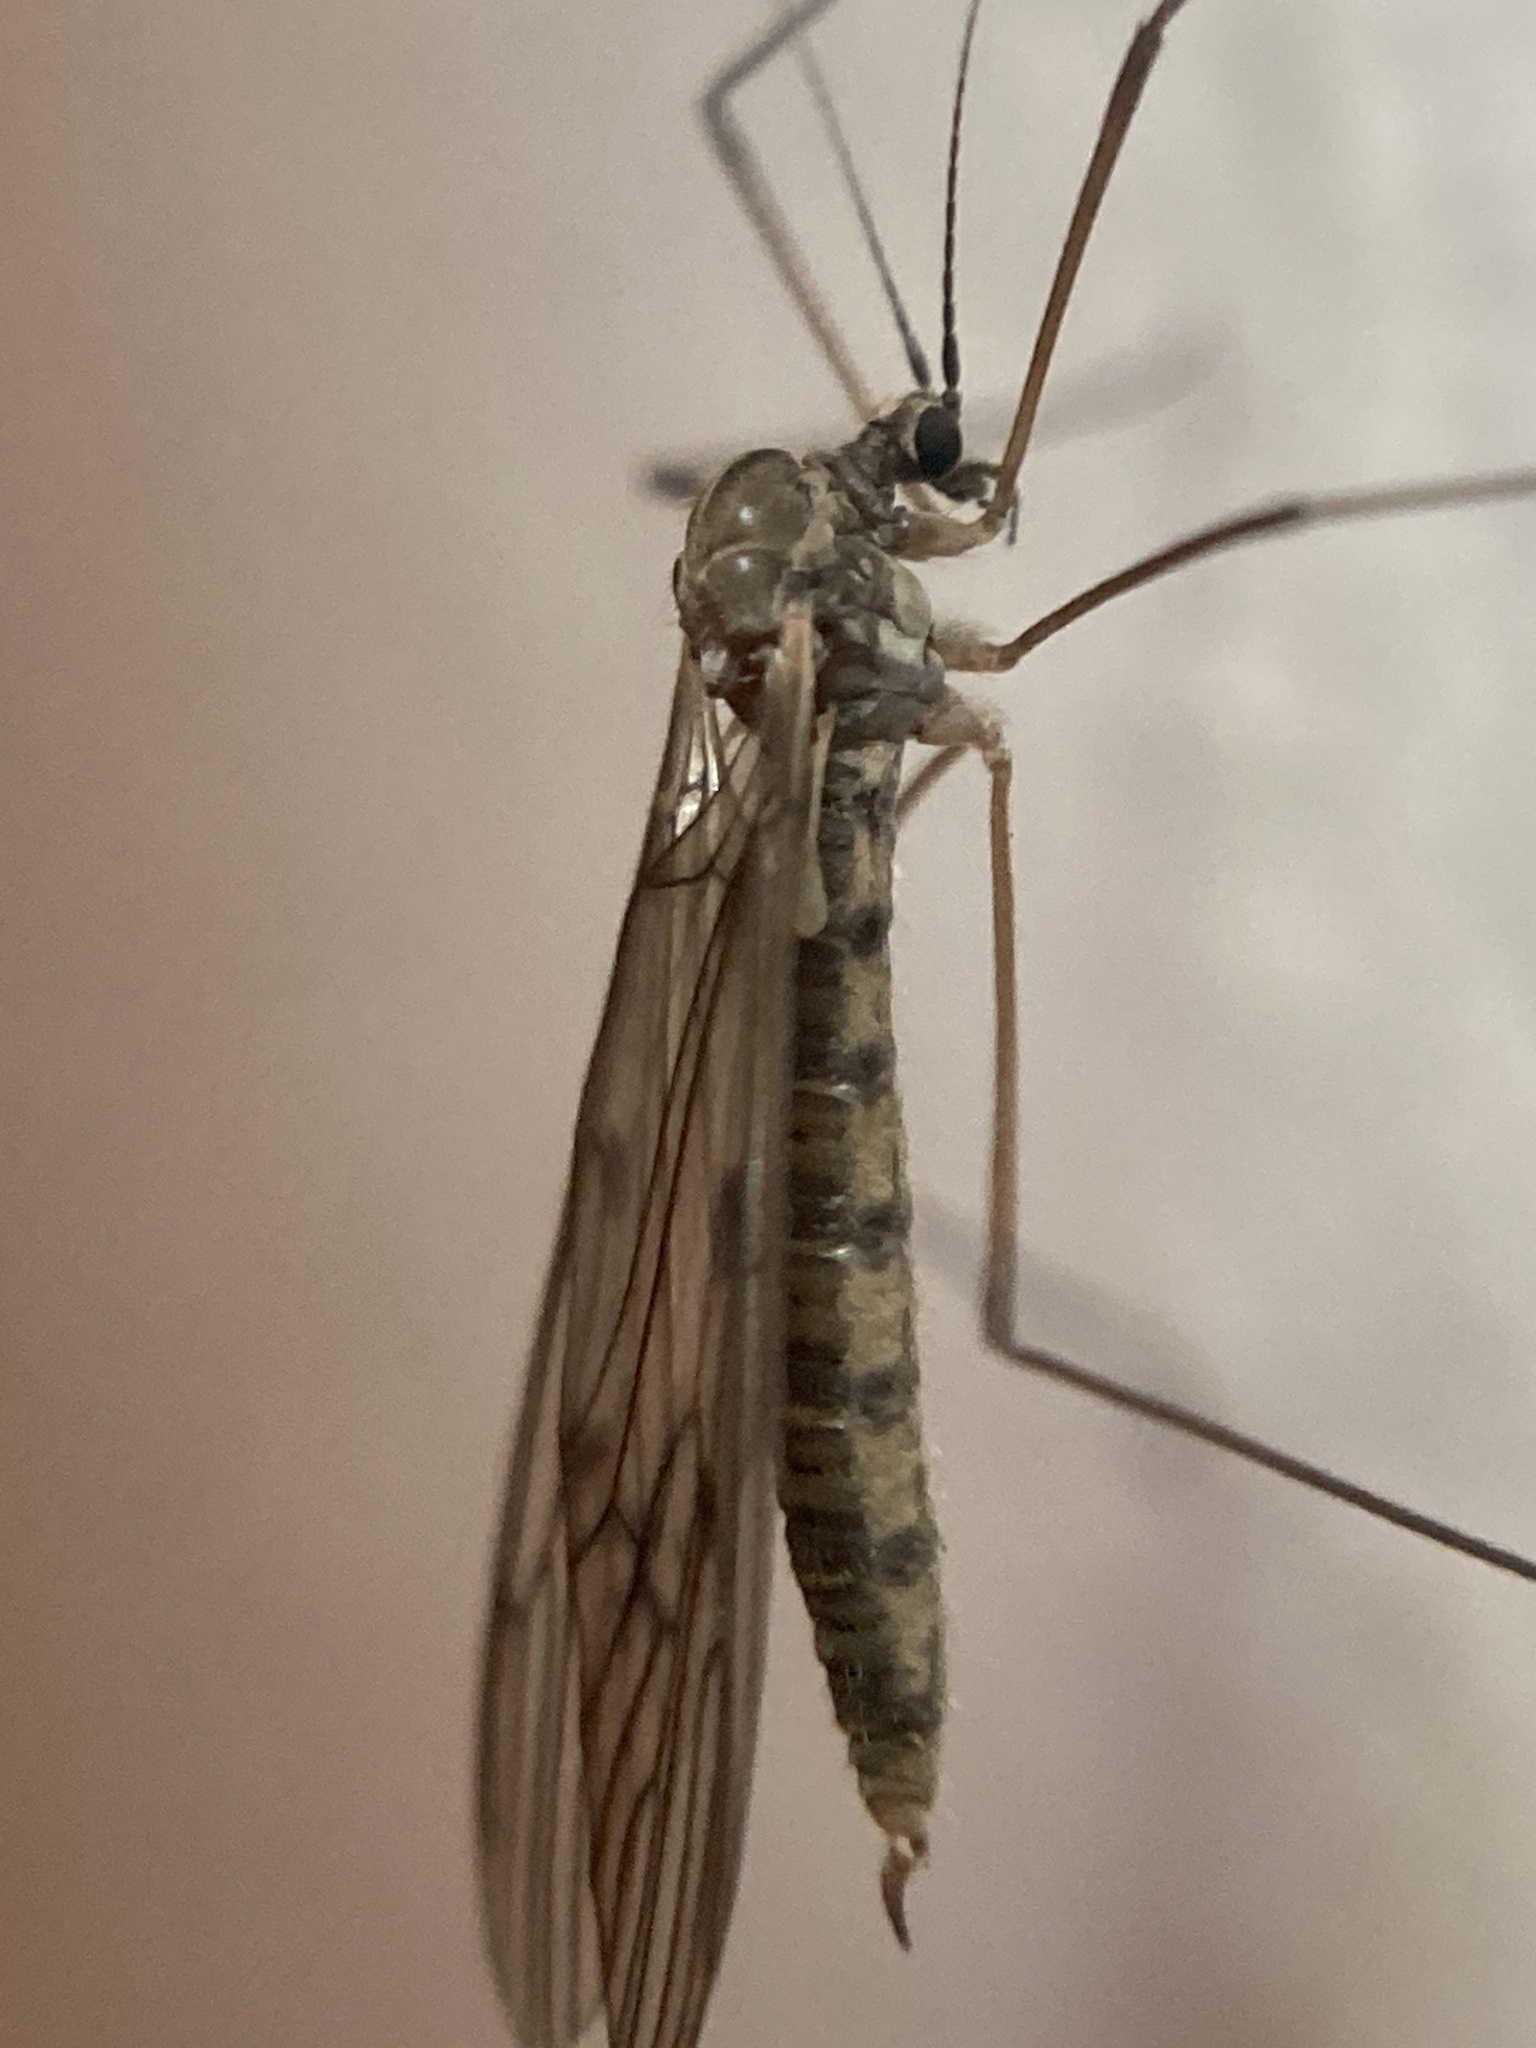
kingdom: Animalia
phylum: Arthropoda
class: Insecta
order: Diptera
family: Trichoceridae
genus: Trichocera
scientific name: Trichocera bimacula
